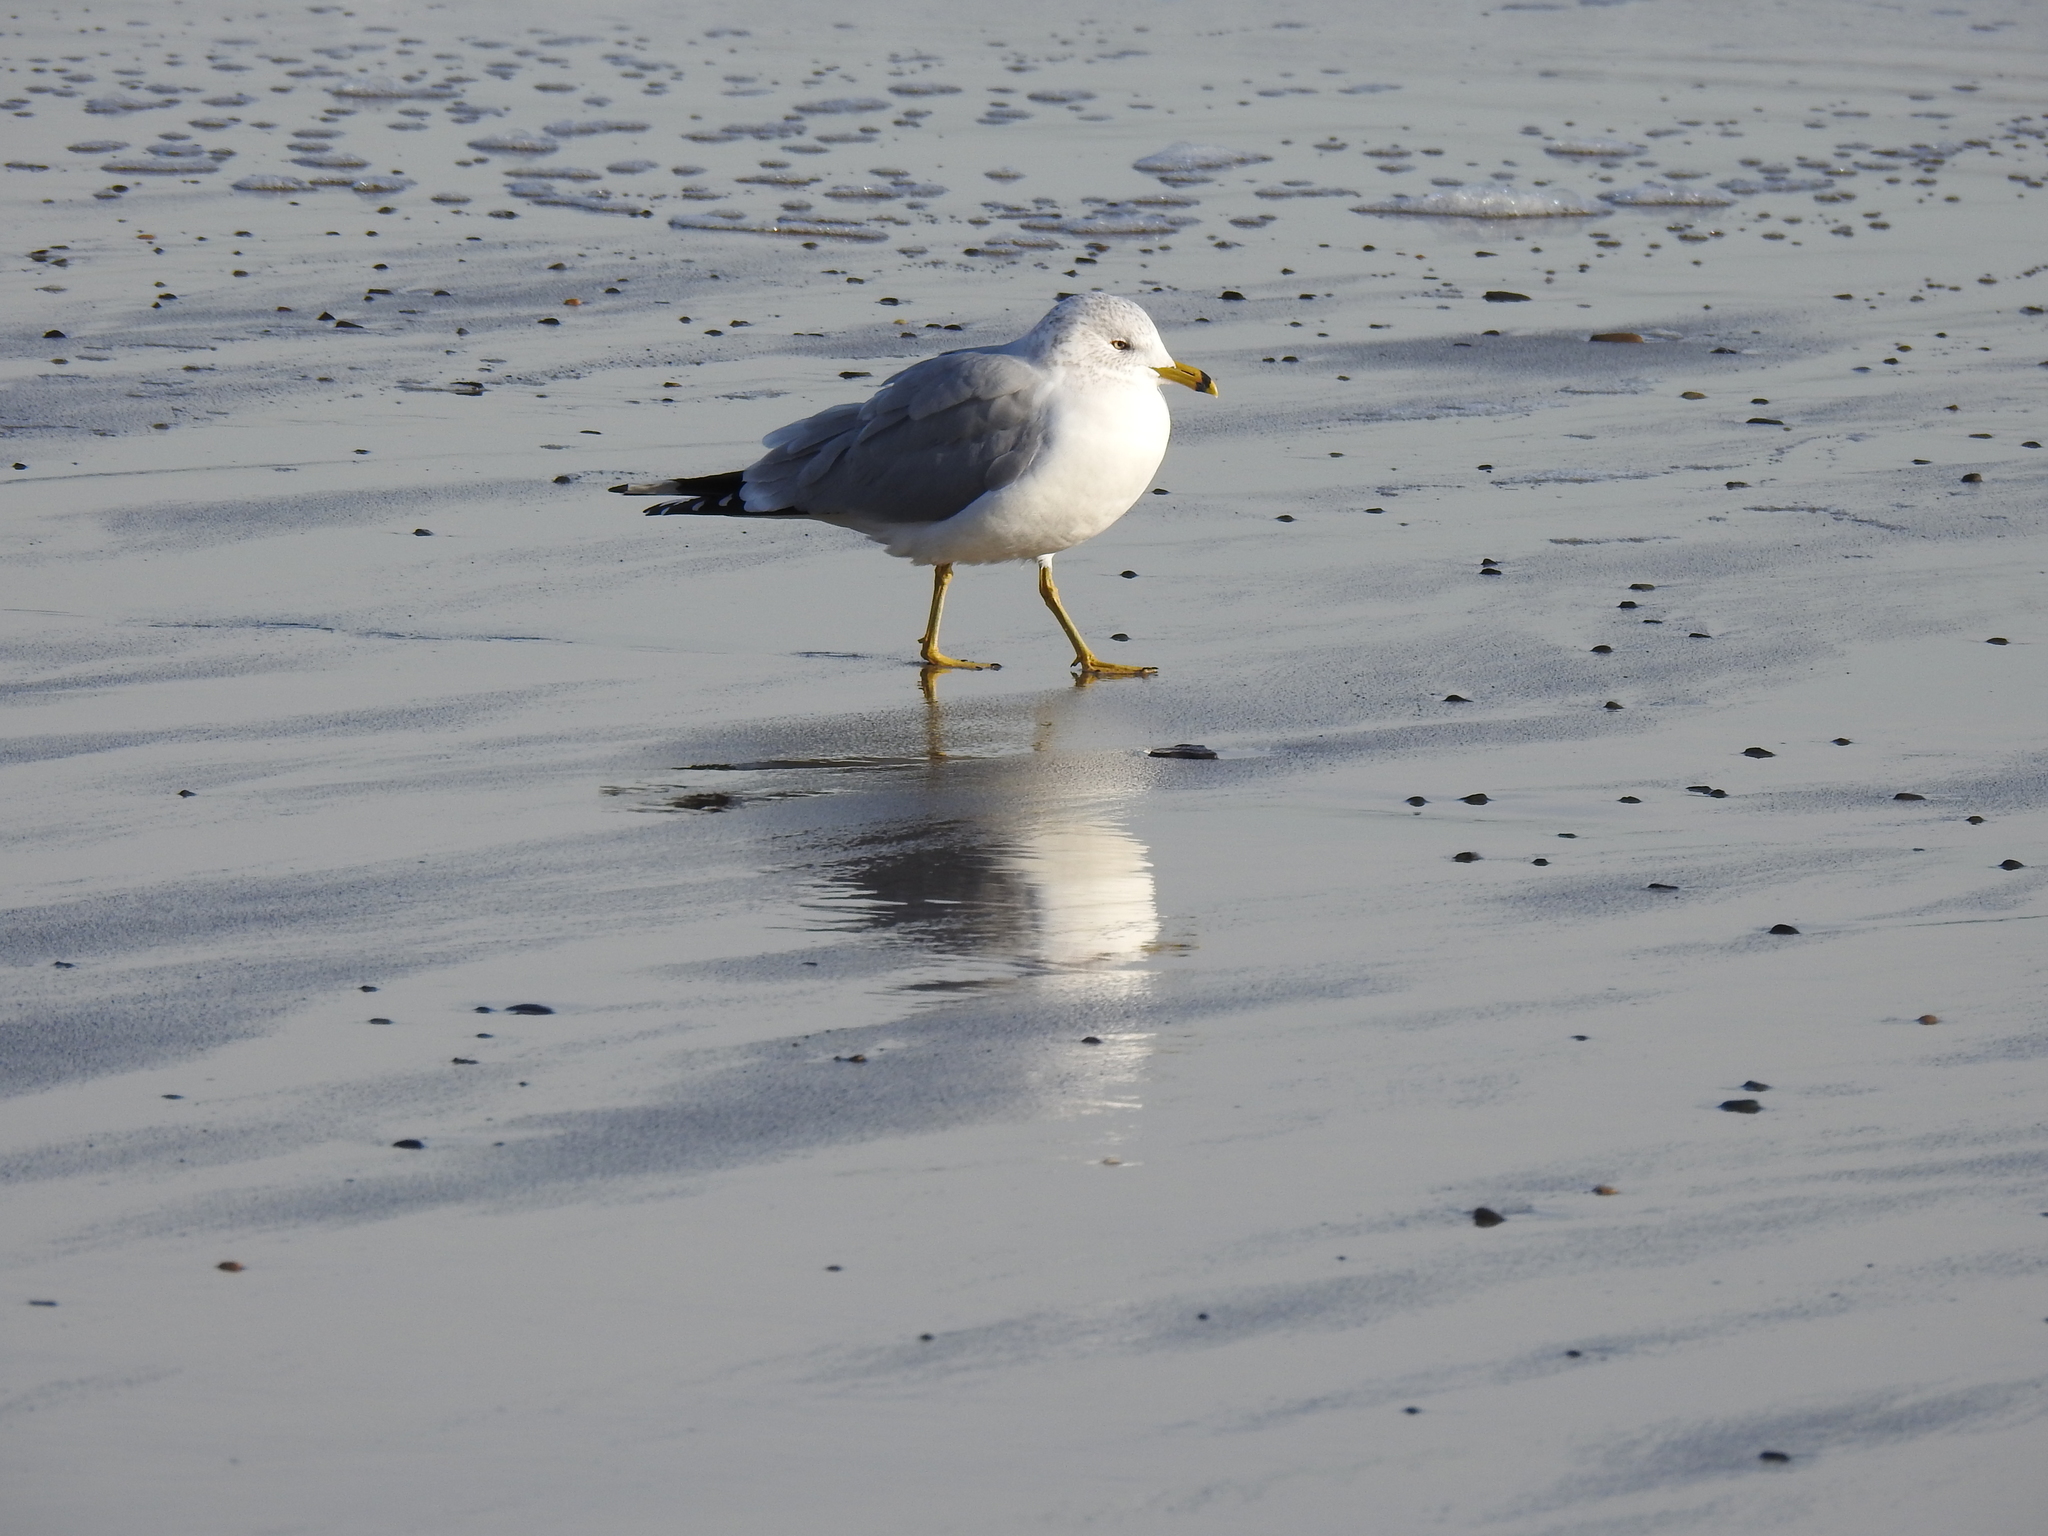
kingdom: Animalia
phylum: Chordata
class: Aves
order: Charadriiformes
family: Laridae
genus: Larus
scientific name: Larus delawarensis
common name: Ring-billed gull
